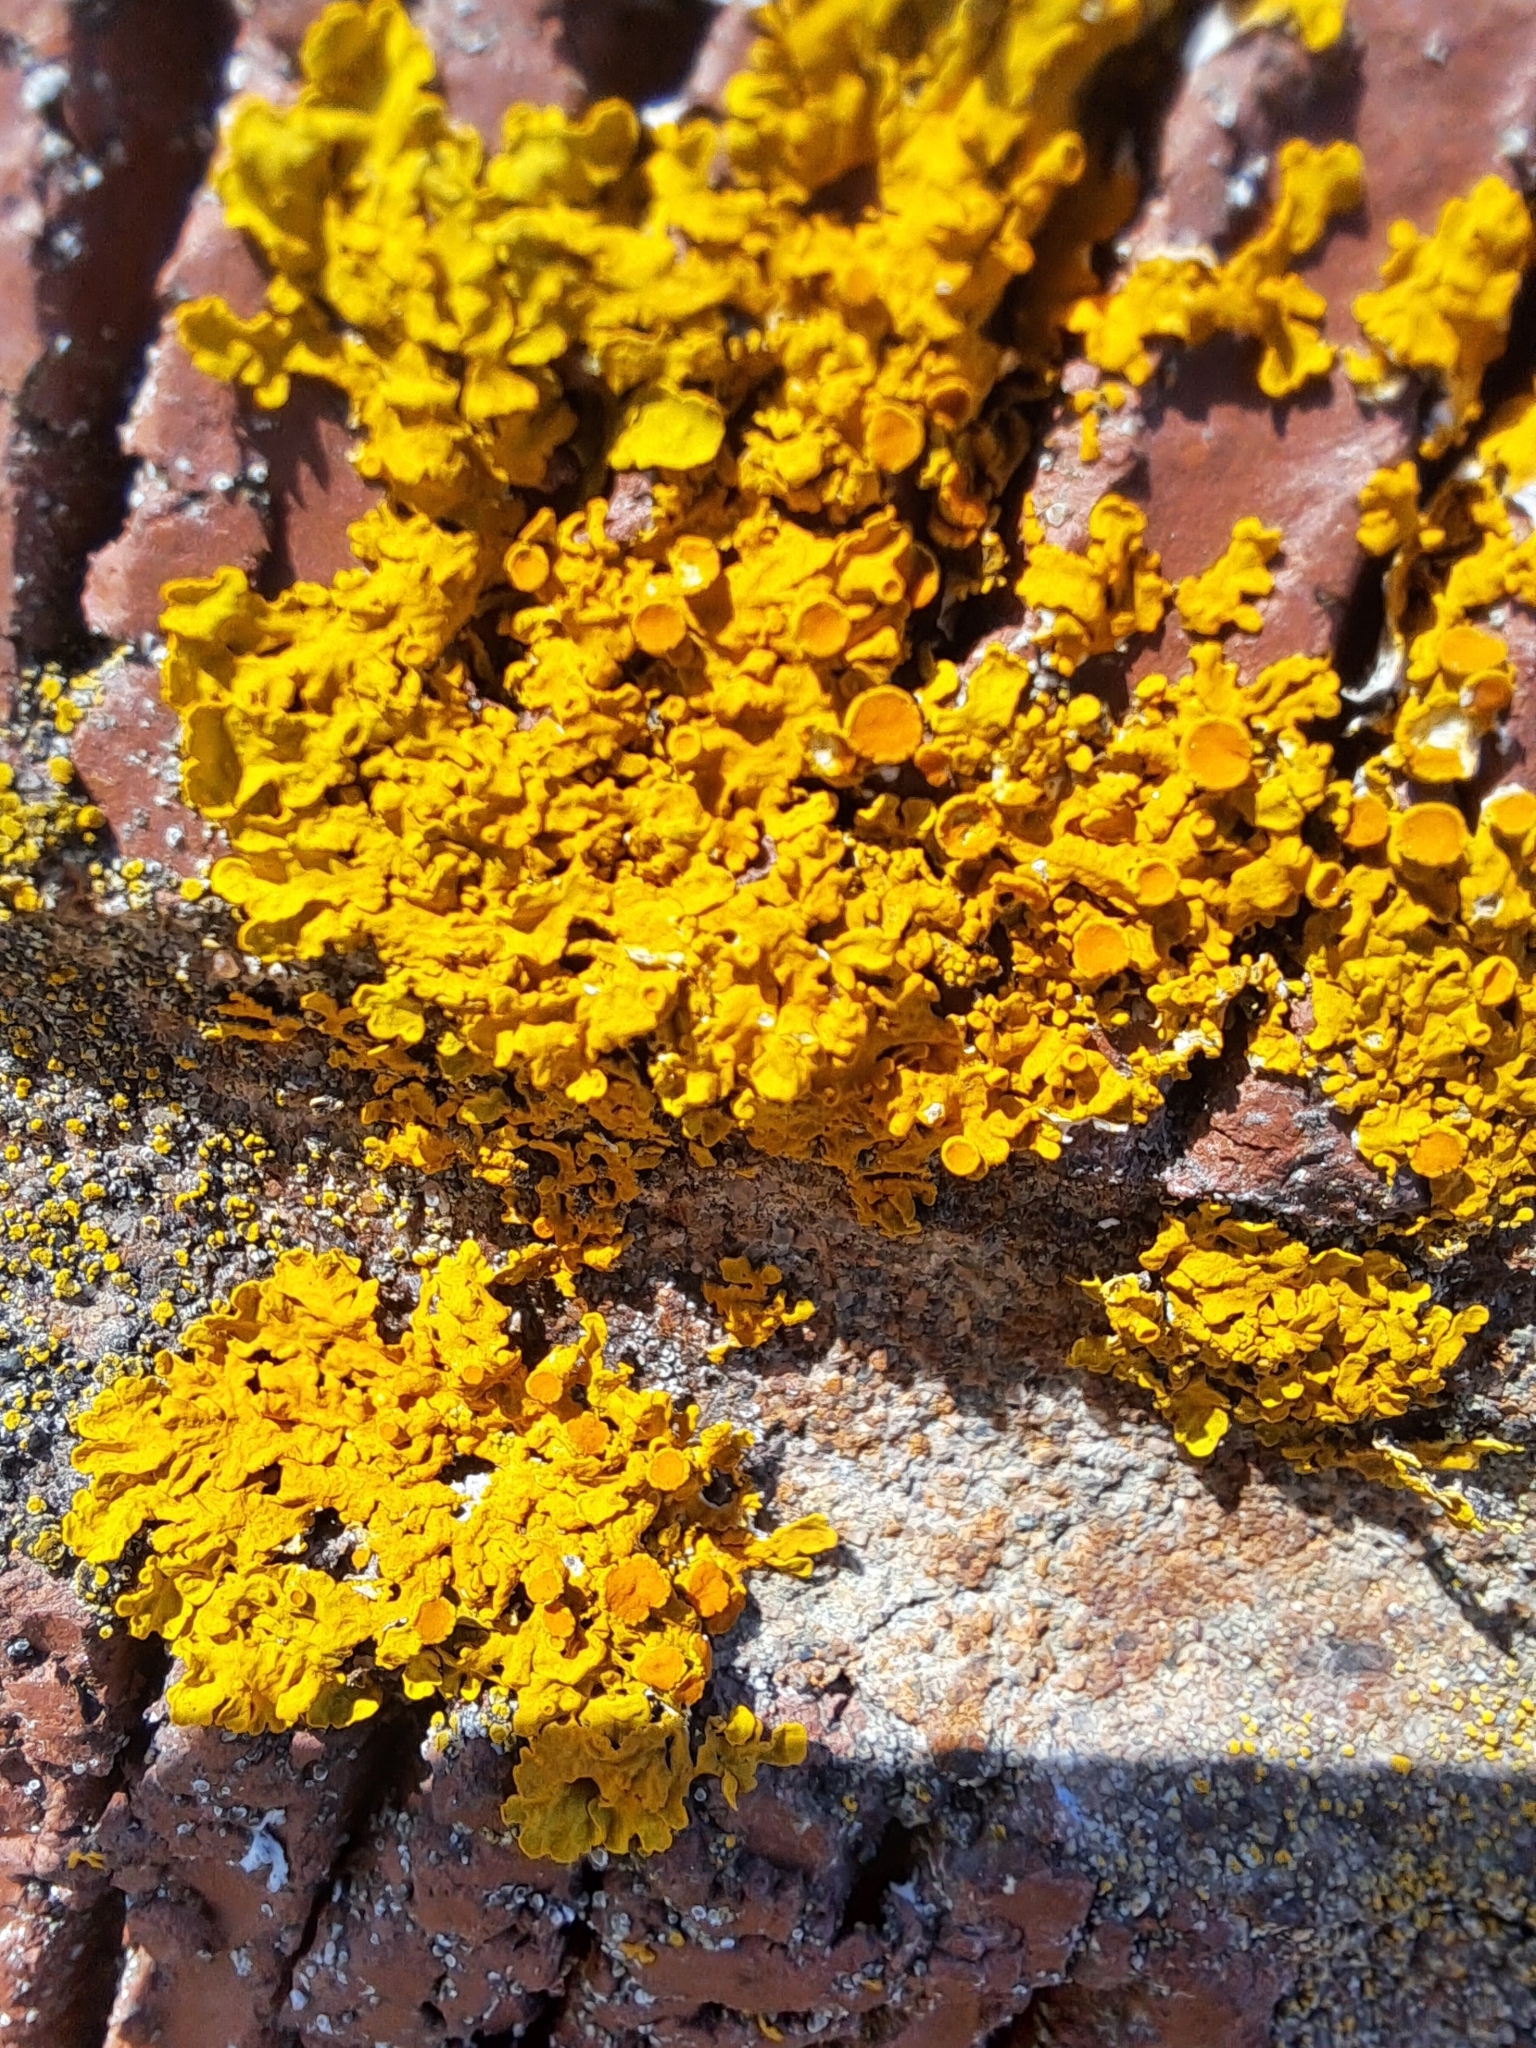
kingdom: Fungi
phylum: Ascomycota
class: Lecanoromycetes
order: Teloschistales
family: Teloschistaceae
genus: Xanthoria
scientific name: Xanthoria parietina
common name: Common orange lichen
